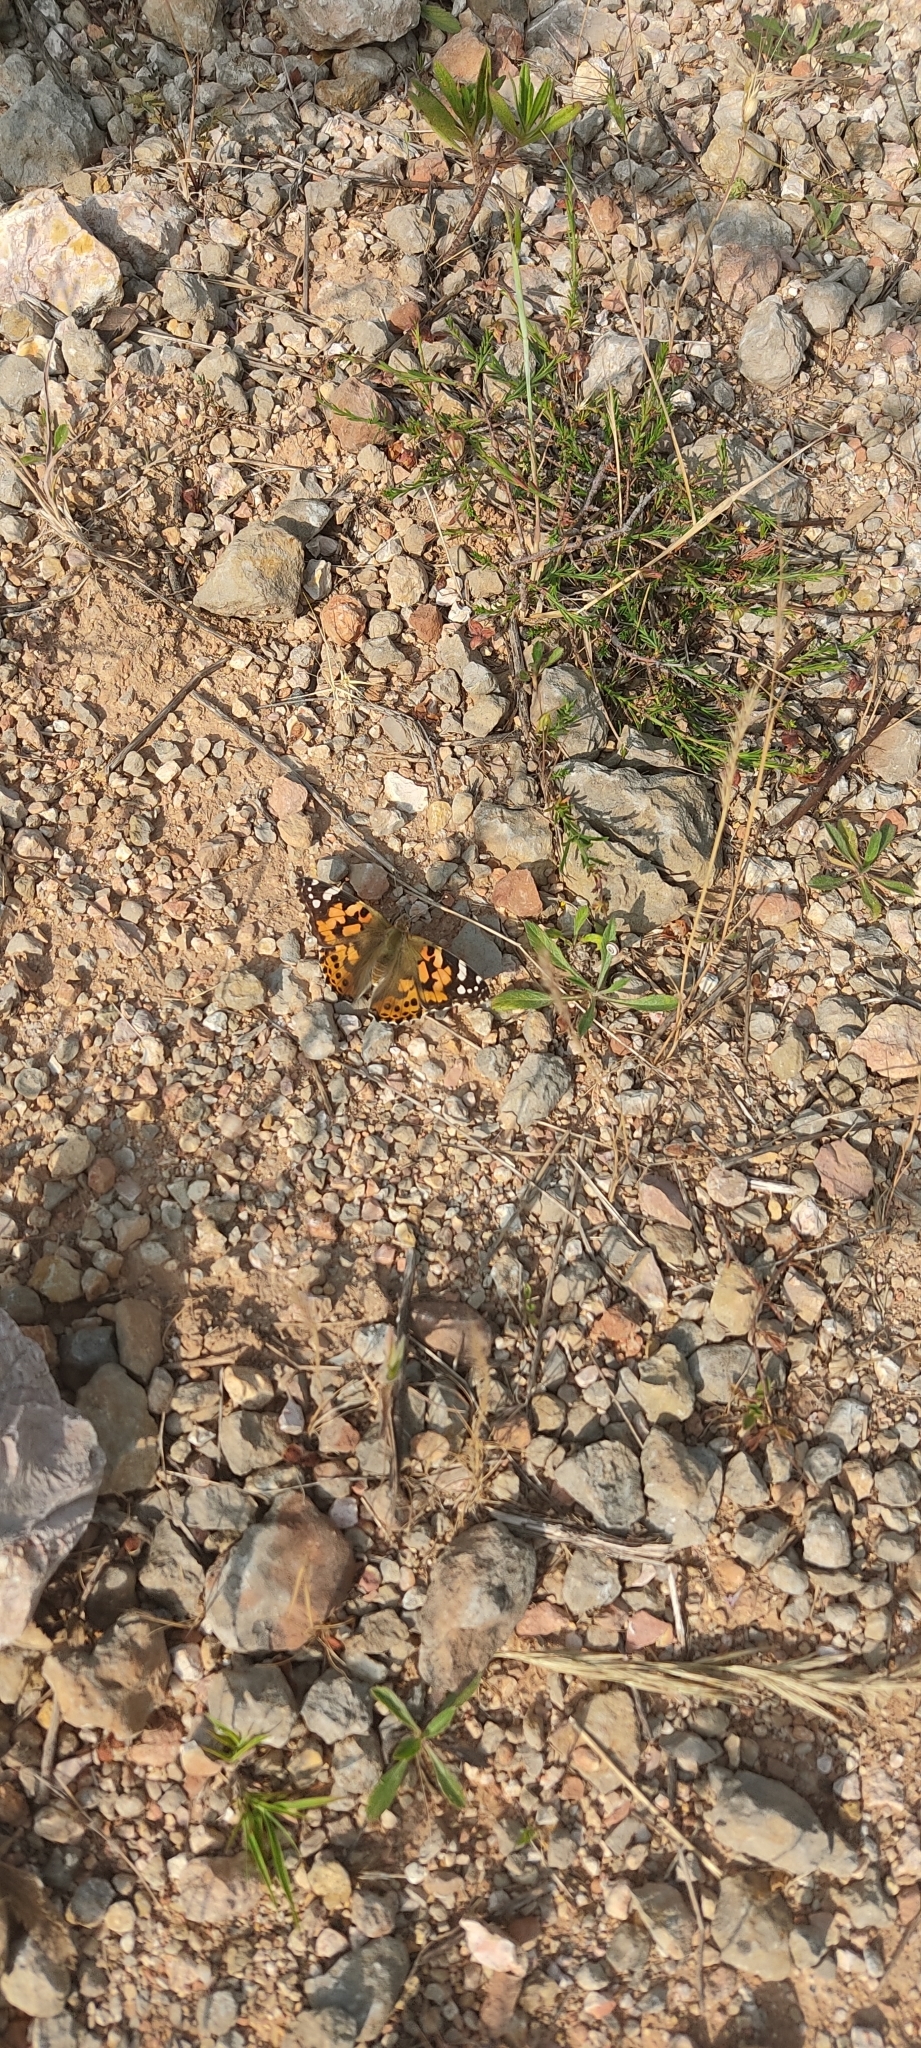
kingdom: Animalia
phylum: Arthropoda
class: Insecta
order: Lepidoptera
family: Nymphalidae
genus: Vanessa
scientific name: Vanessa cardui
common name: Painted lady
